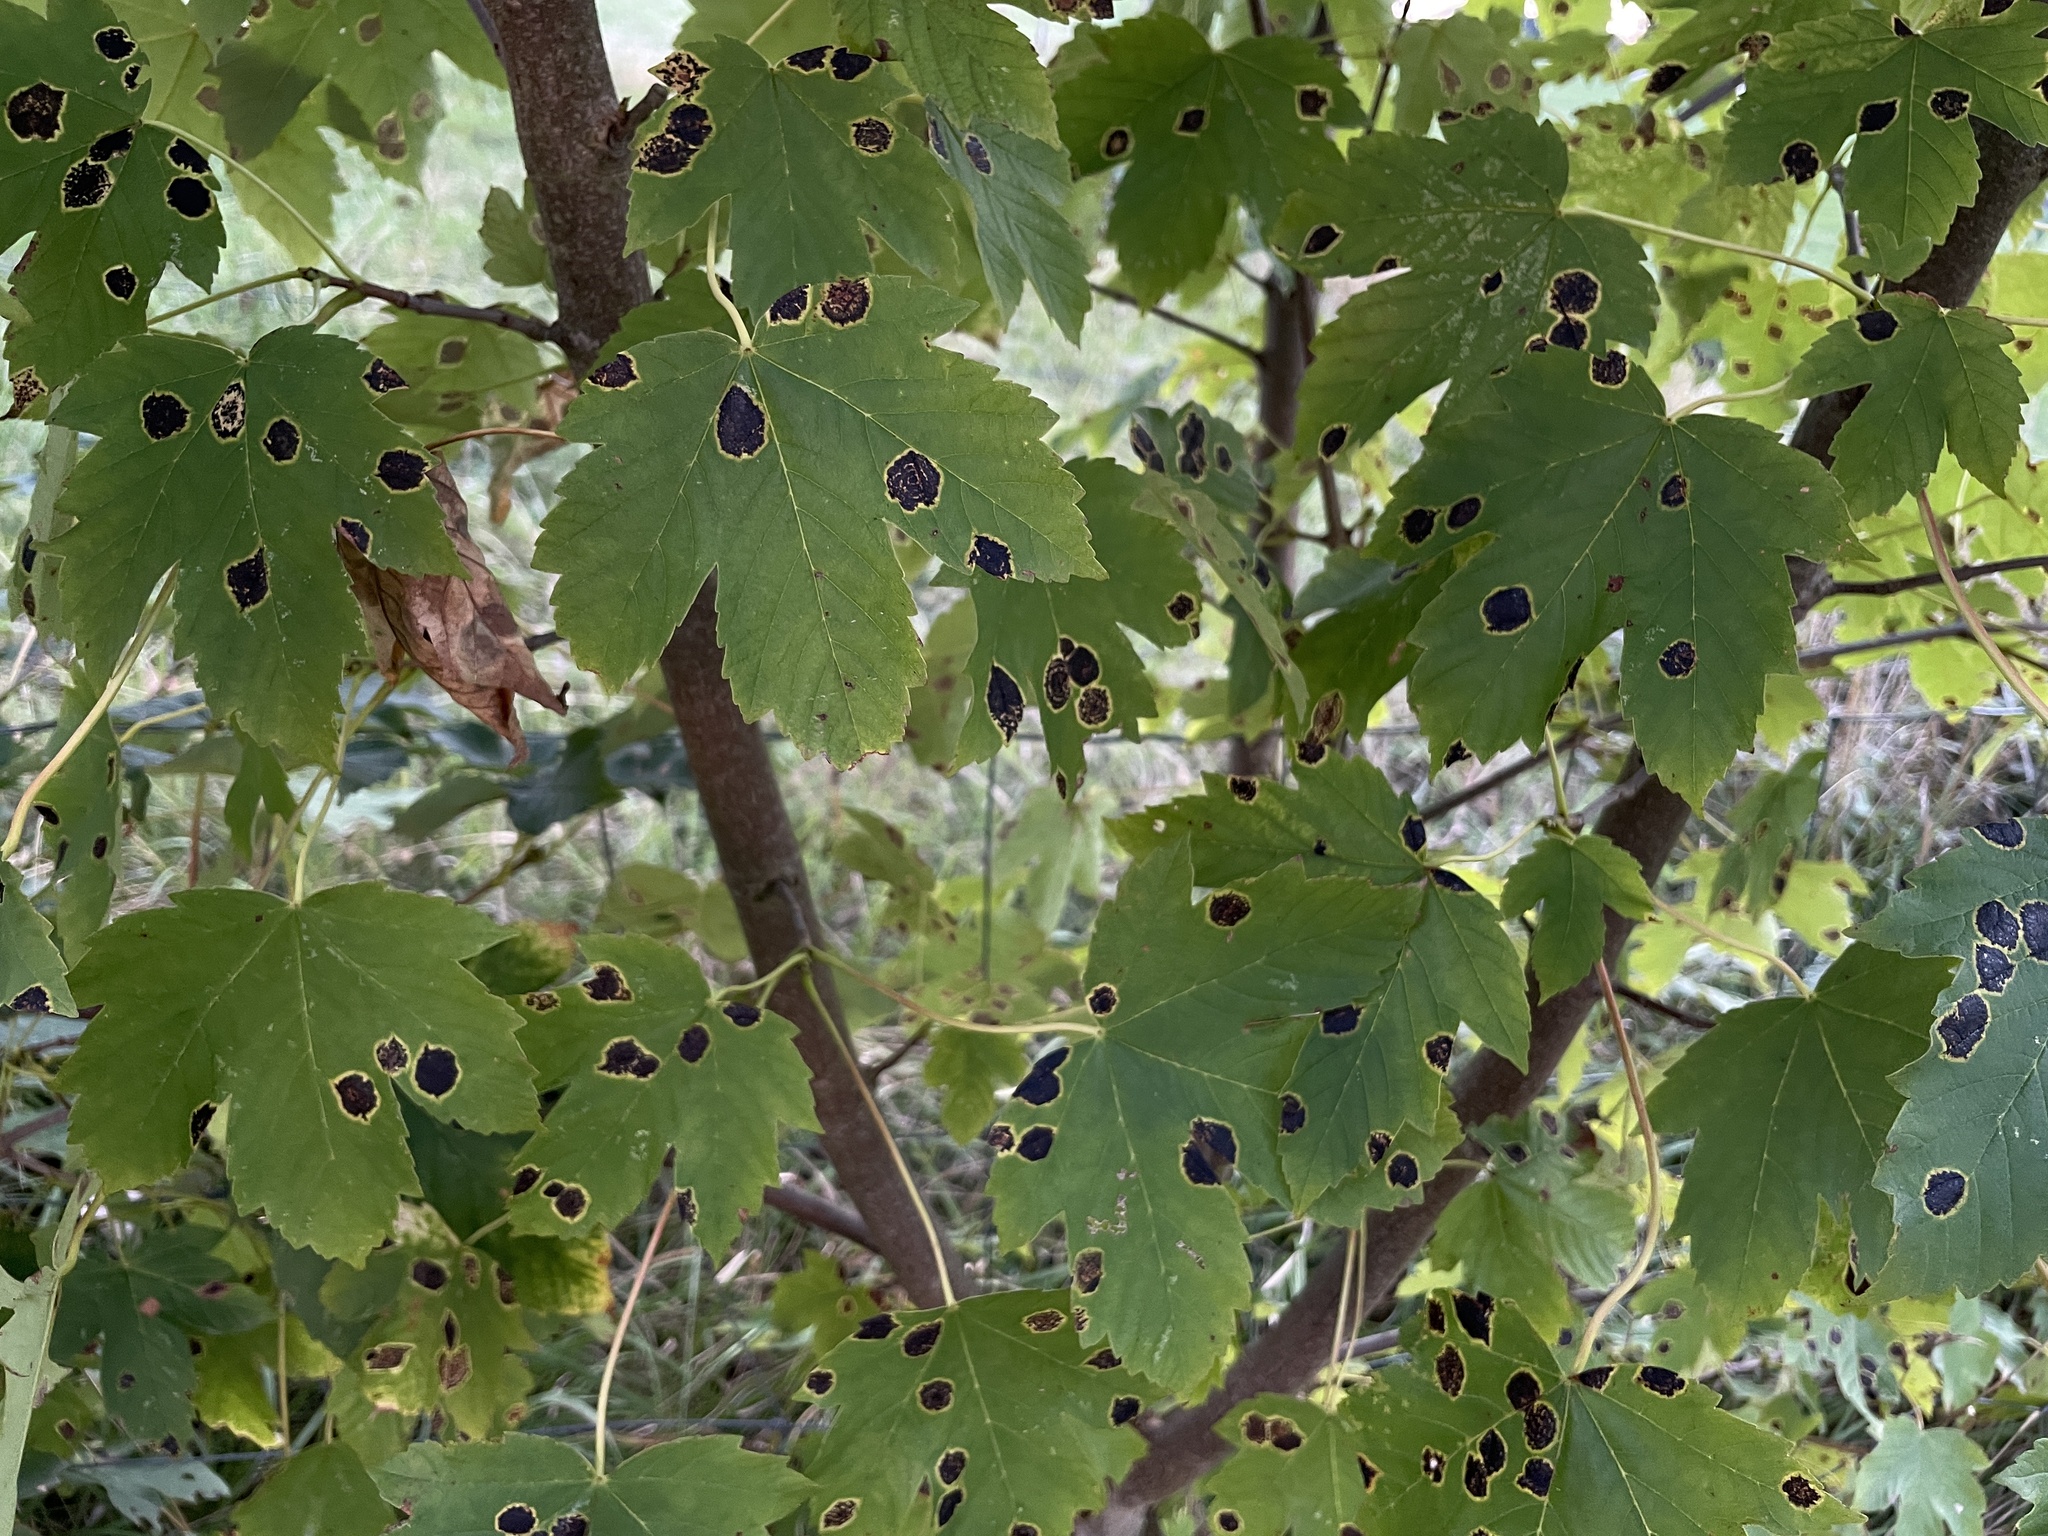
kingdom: Fungi
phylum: Ascomycota
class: Leotiomycetes
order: Rhytismatales
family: Rhytismataceae
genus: Rhytisma
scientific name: Rhytisma acerinum
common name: European tar spot
